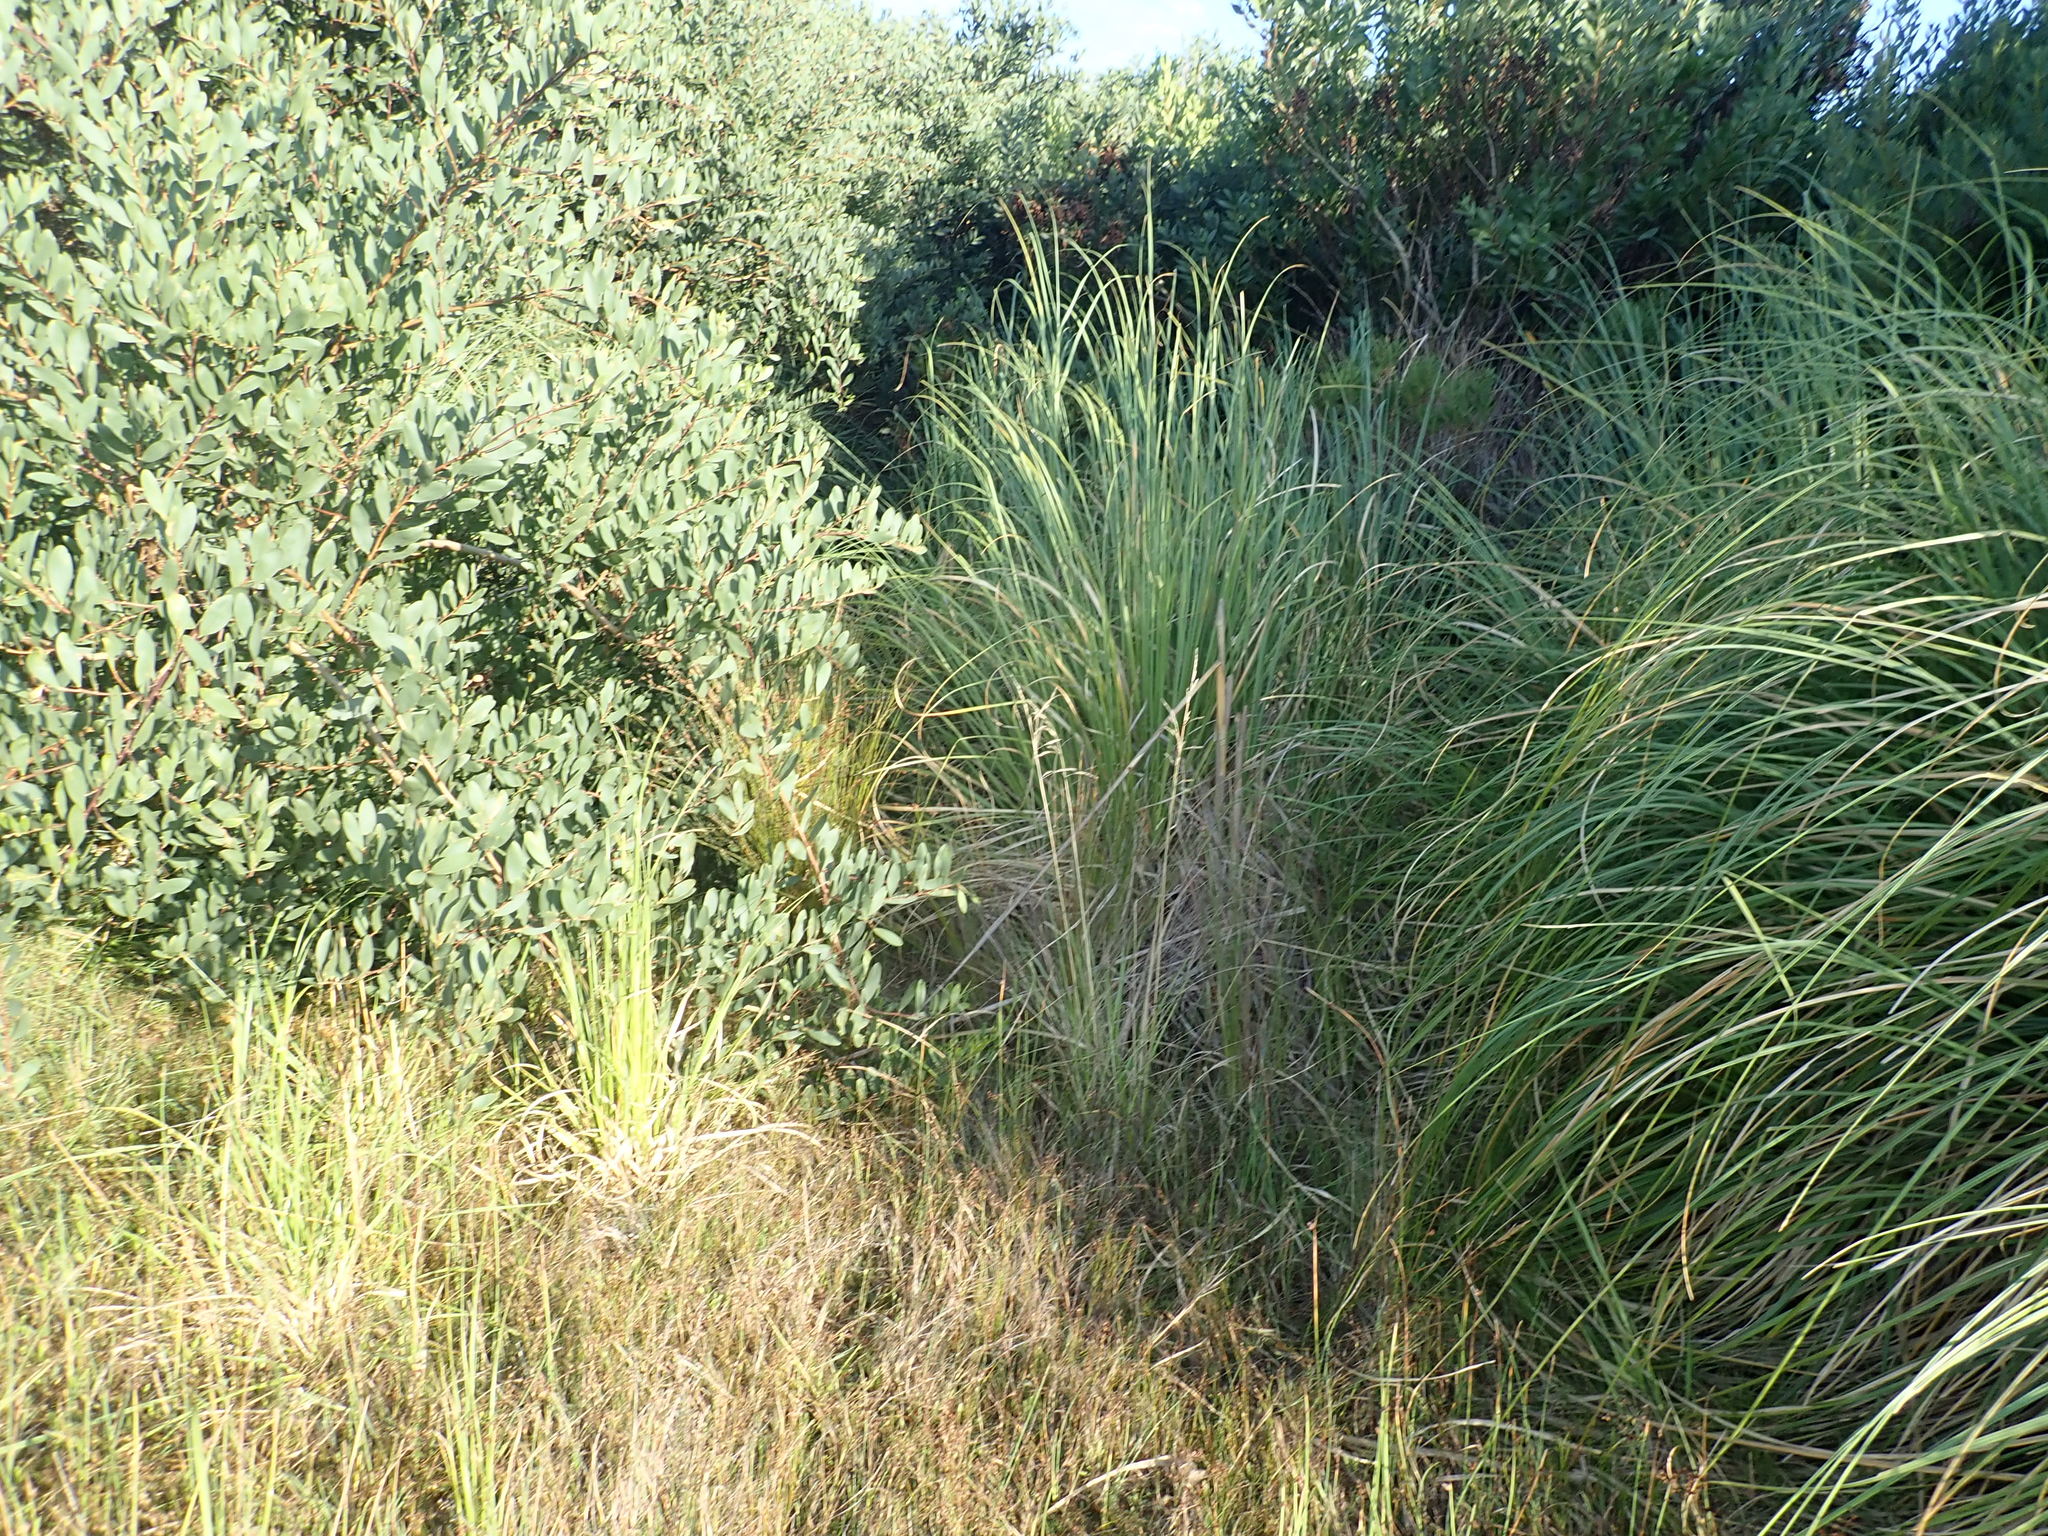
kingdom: Plantae
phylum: Tracheophyta
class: Liliopsida
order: Poales
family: Restionaceae
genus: Apodasmia
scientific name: Apodasmia similis
